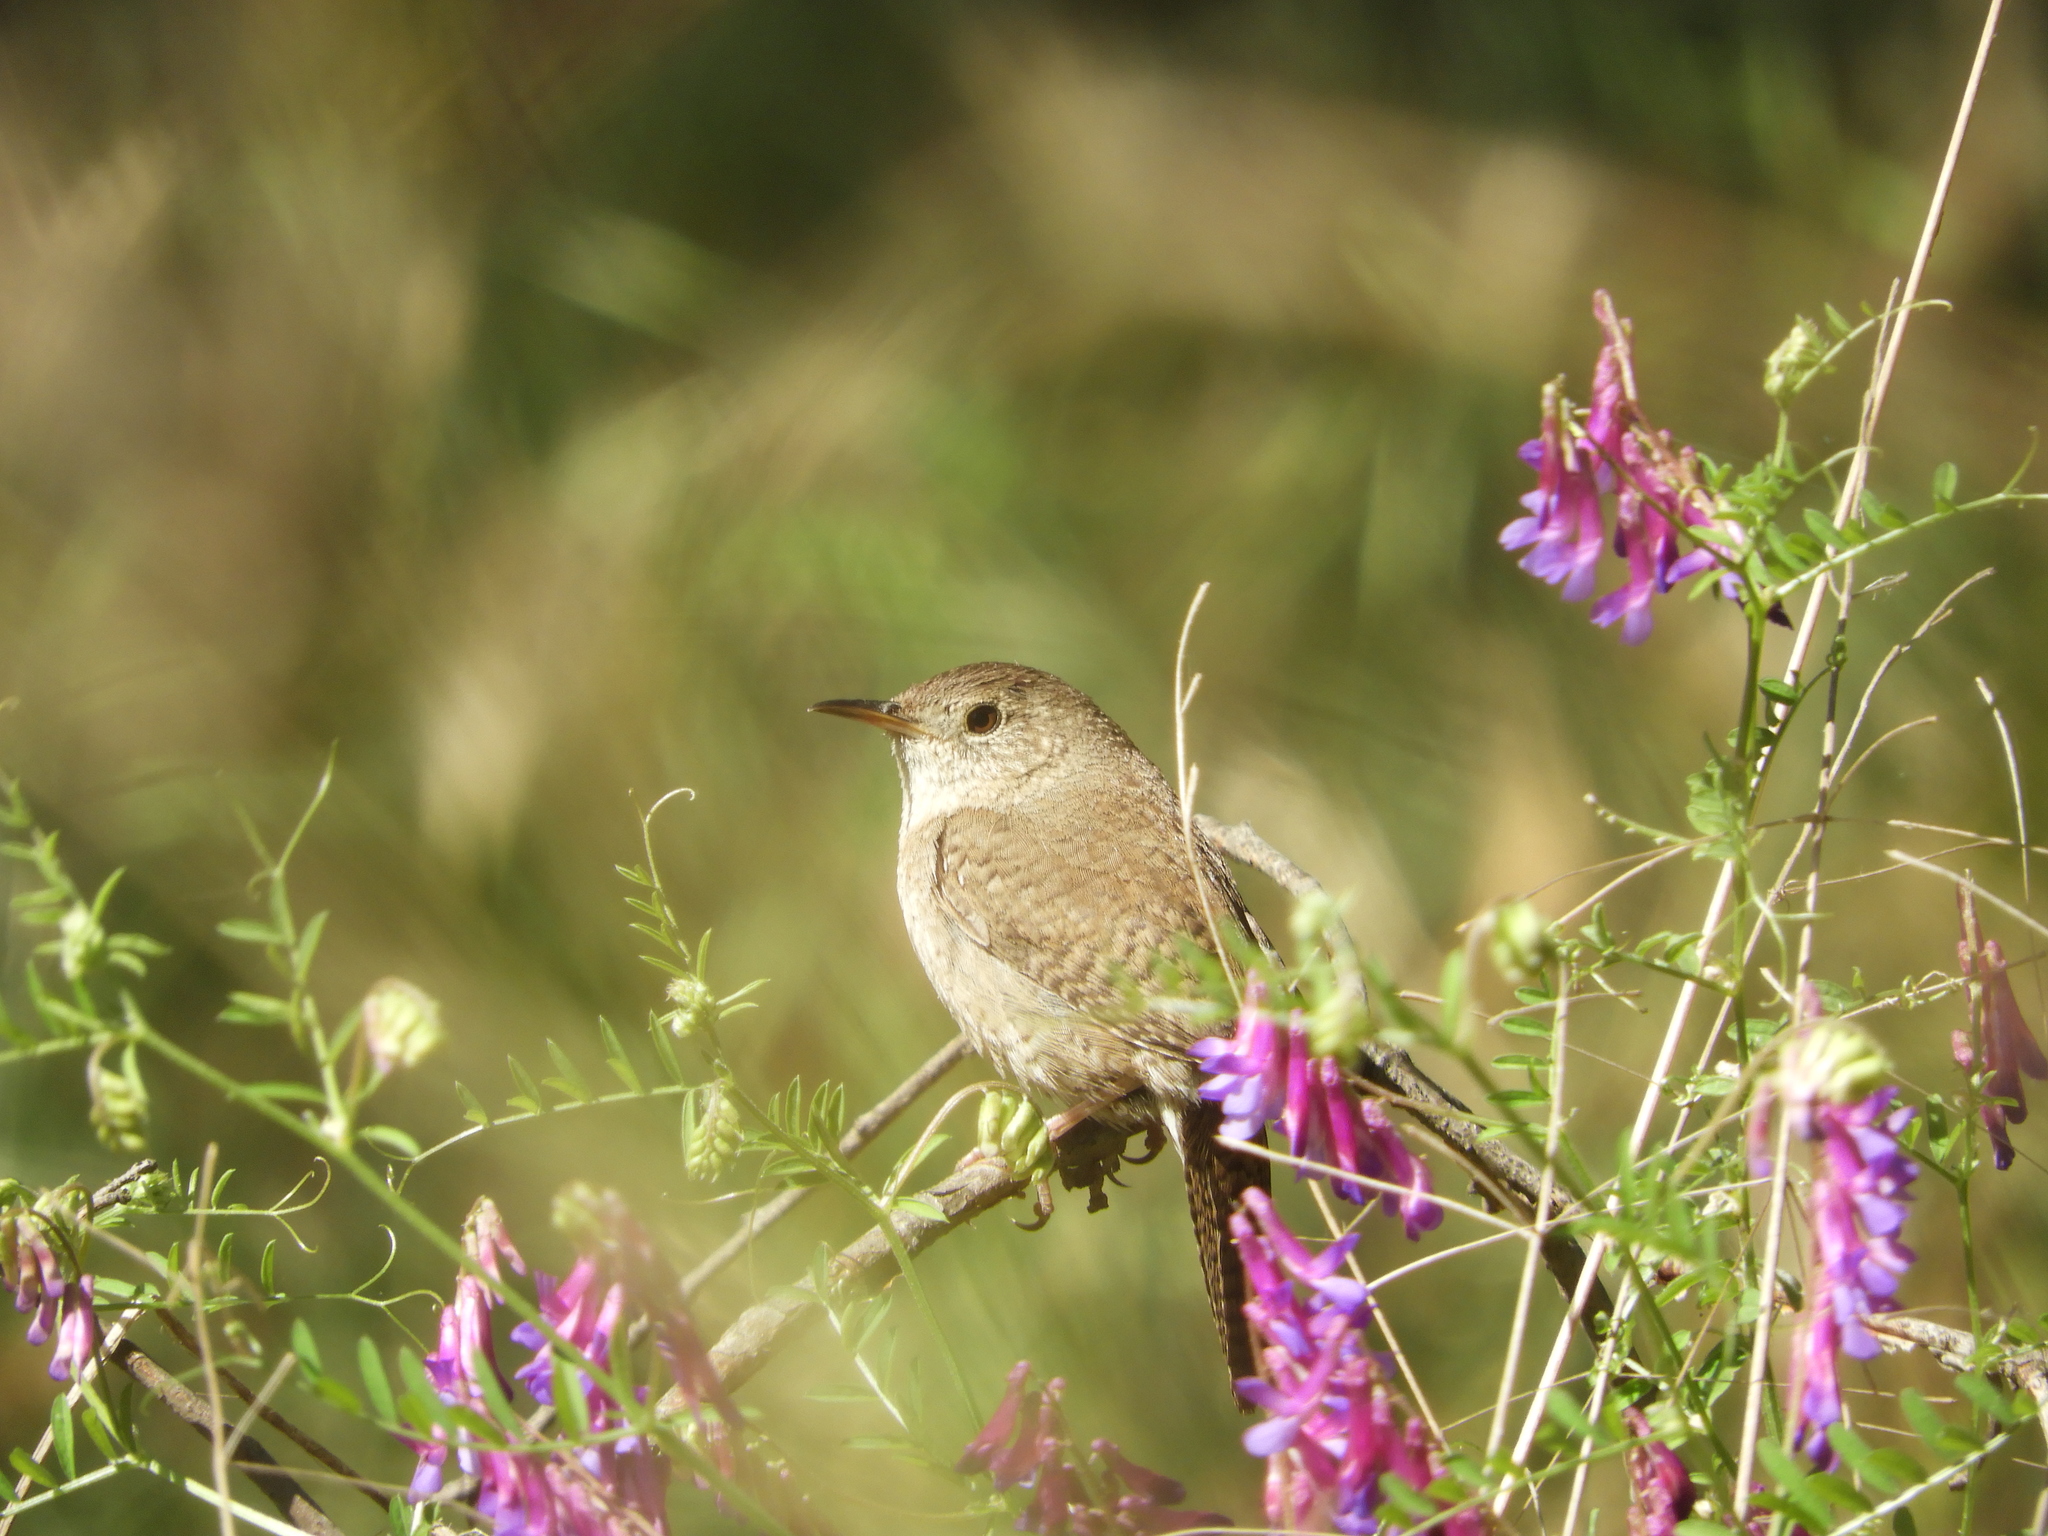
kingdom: Animalia
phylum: Chordata
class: Aves
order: Passeriformes
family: Troglodytidae
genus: Troglodytes
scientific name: Troglodytes aedon
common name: House wren
